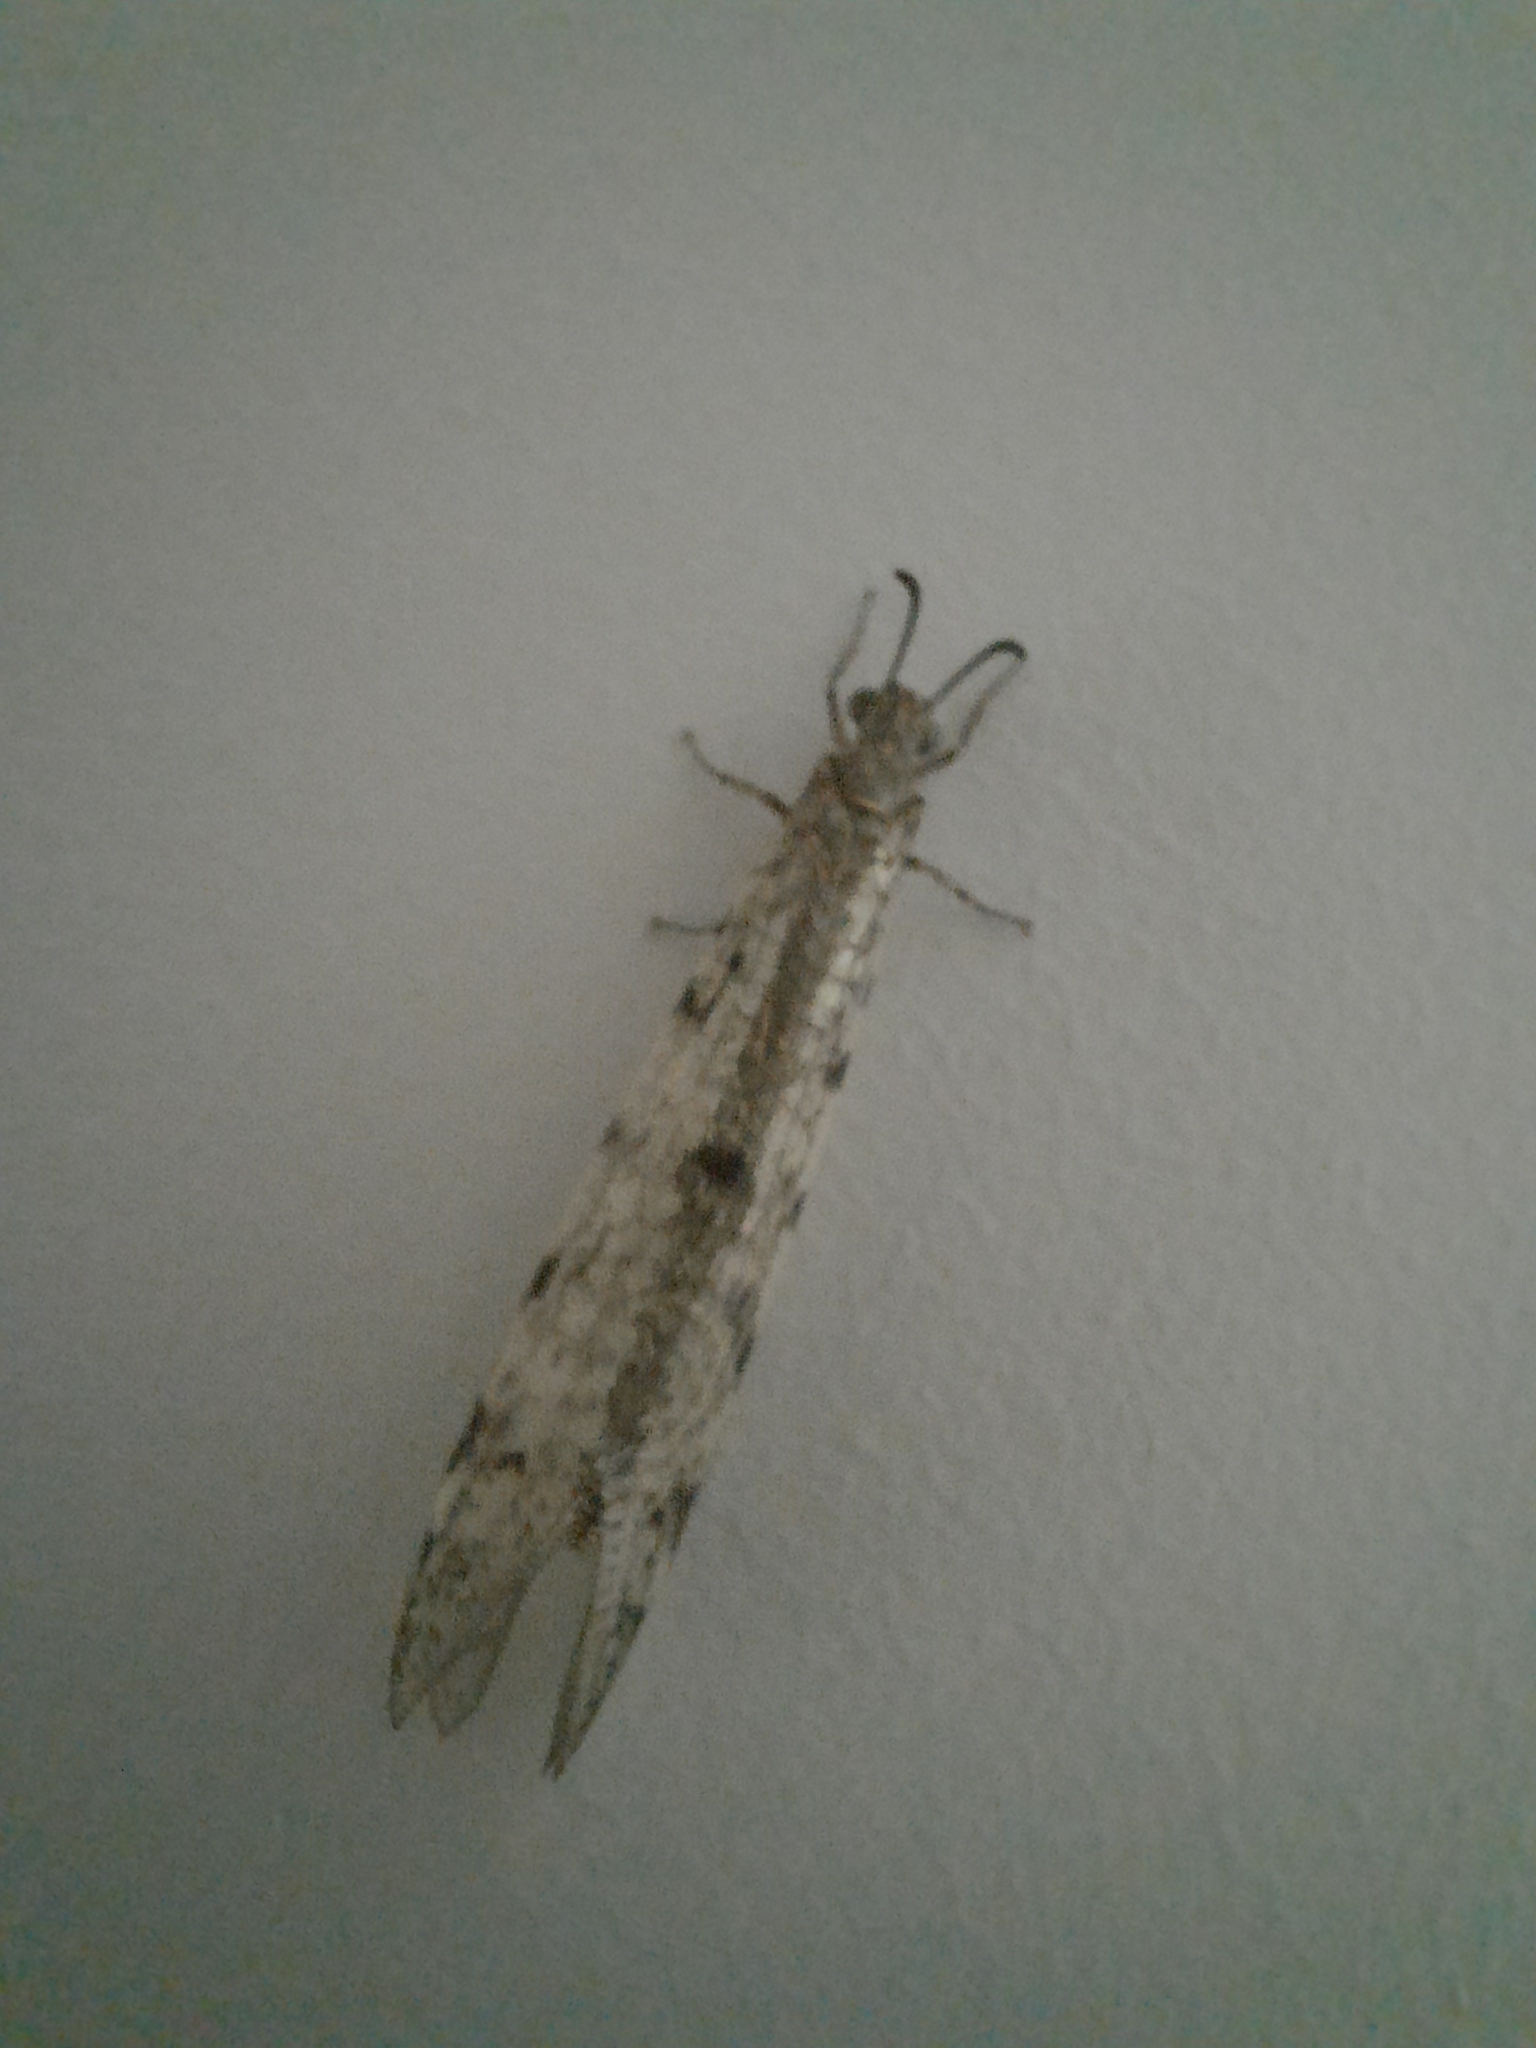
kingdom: Animalia
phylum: Arthropoda
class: Insecta
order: Neuroptera
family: Myrmeleontidae
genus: Euroleon
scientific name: Euroleon nostras
